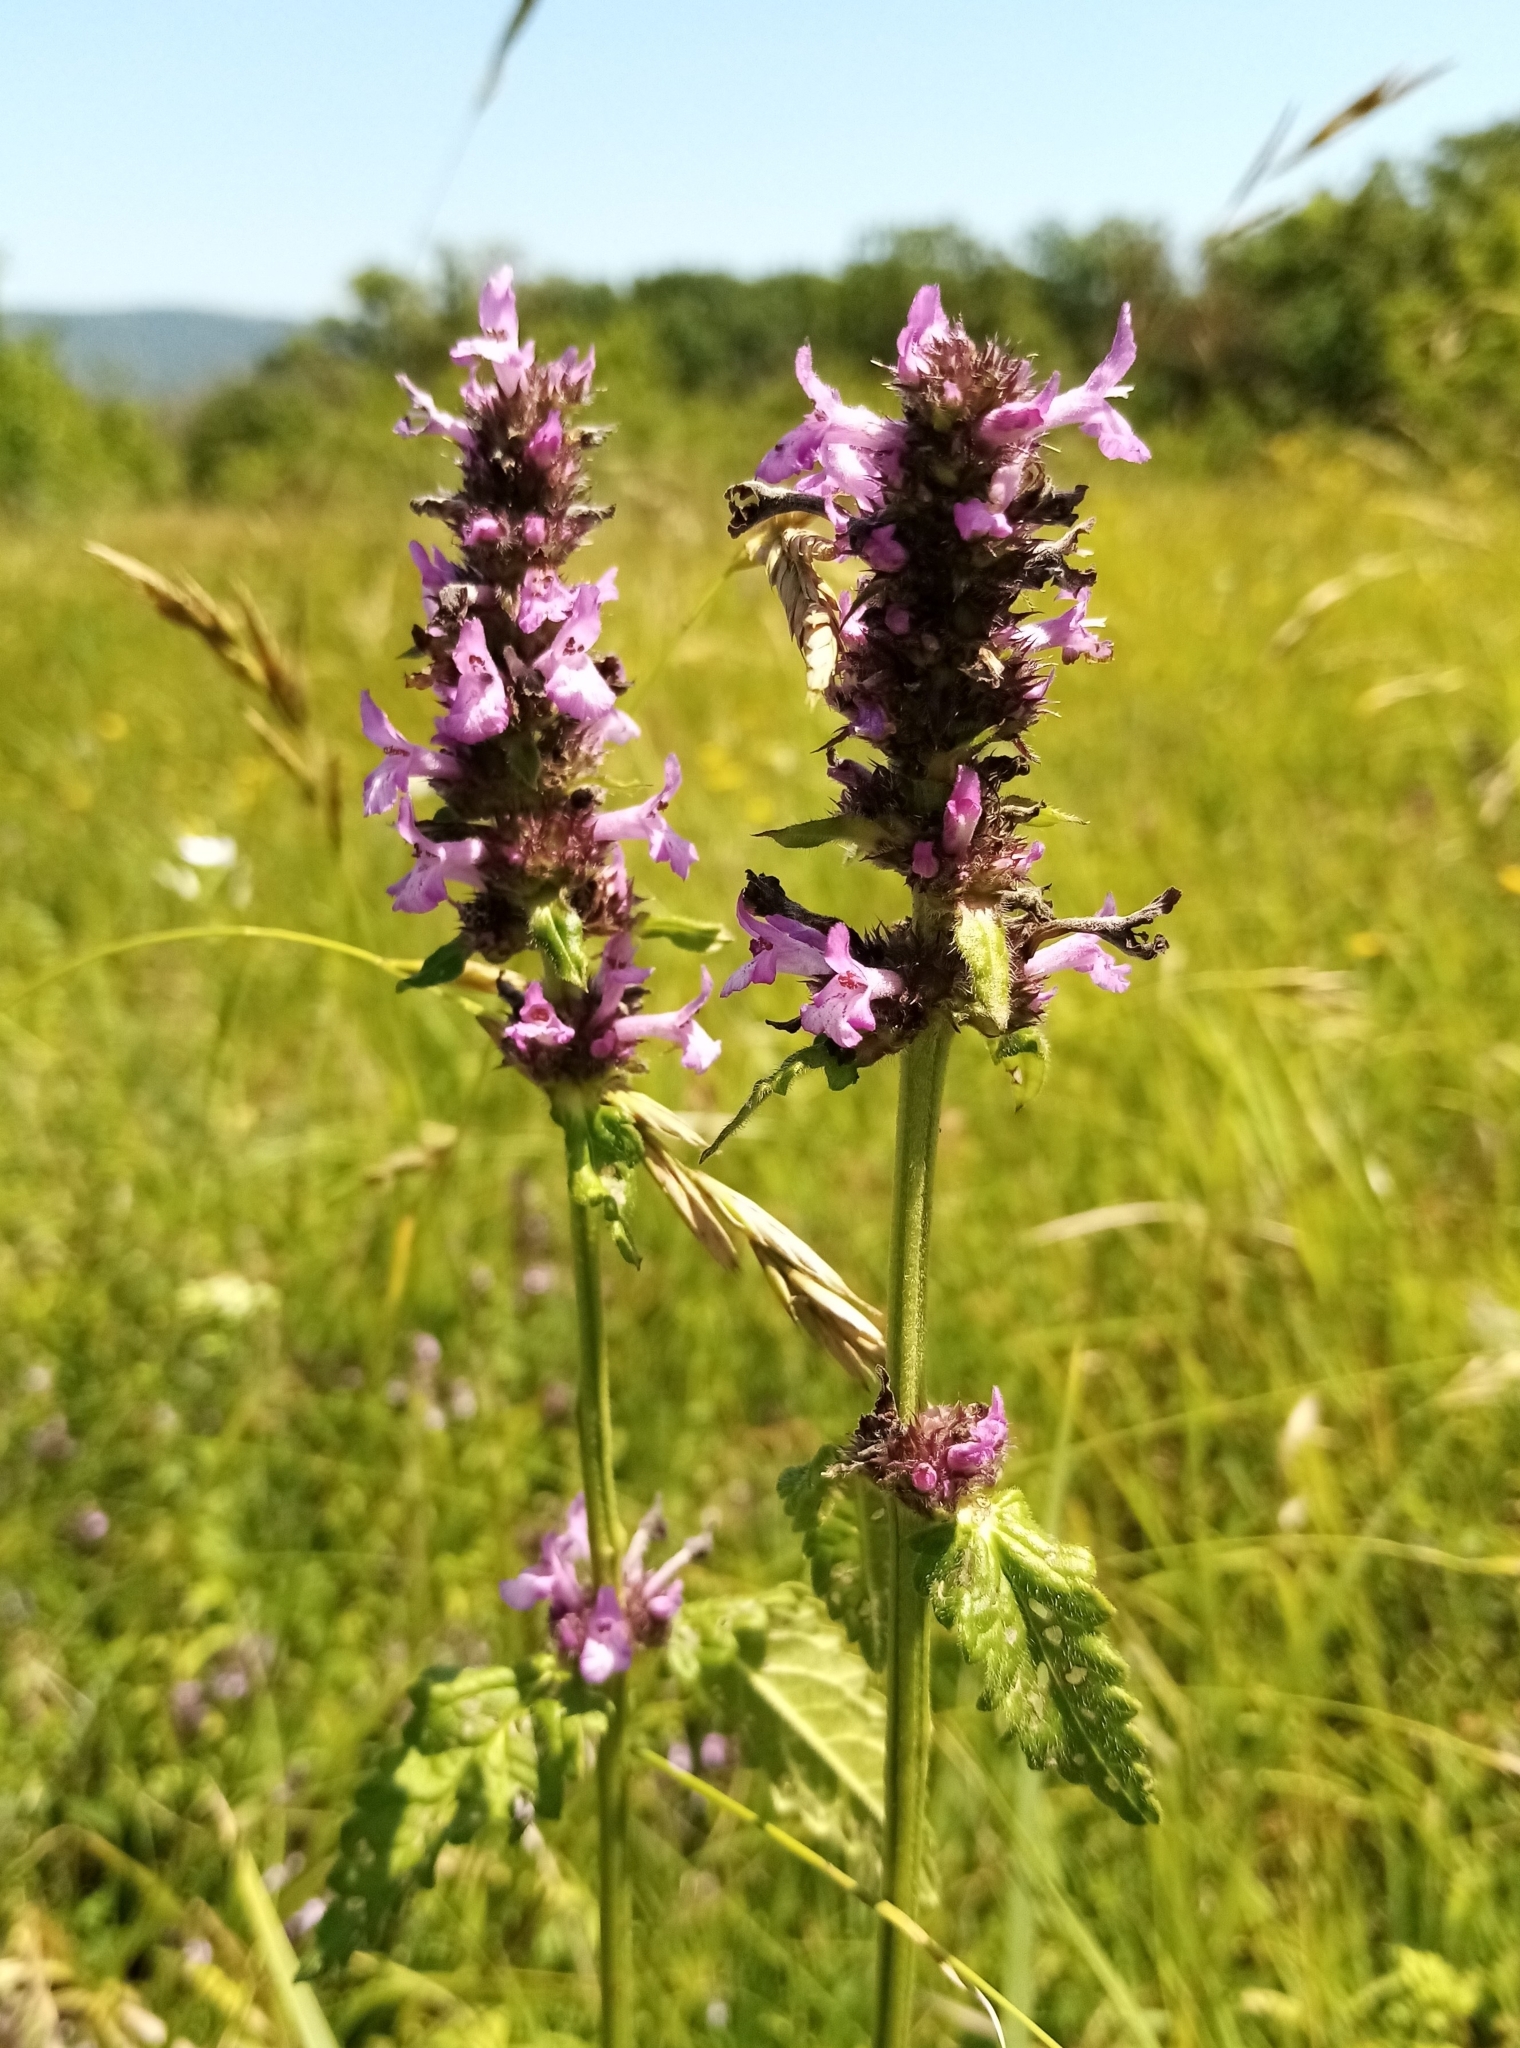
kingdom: Plantae
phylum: Tracheophyta
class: Magnoliopsida
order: Lamiales
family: Lamiaceae
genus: Betonica
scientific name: Betonica officinalis
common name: Bishop's-wort
